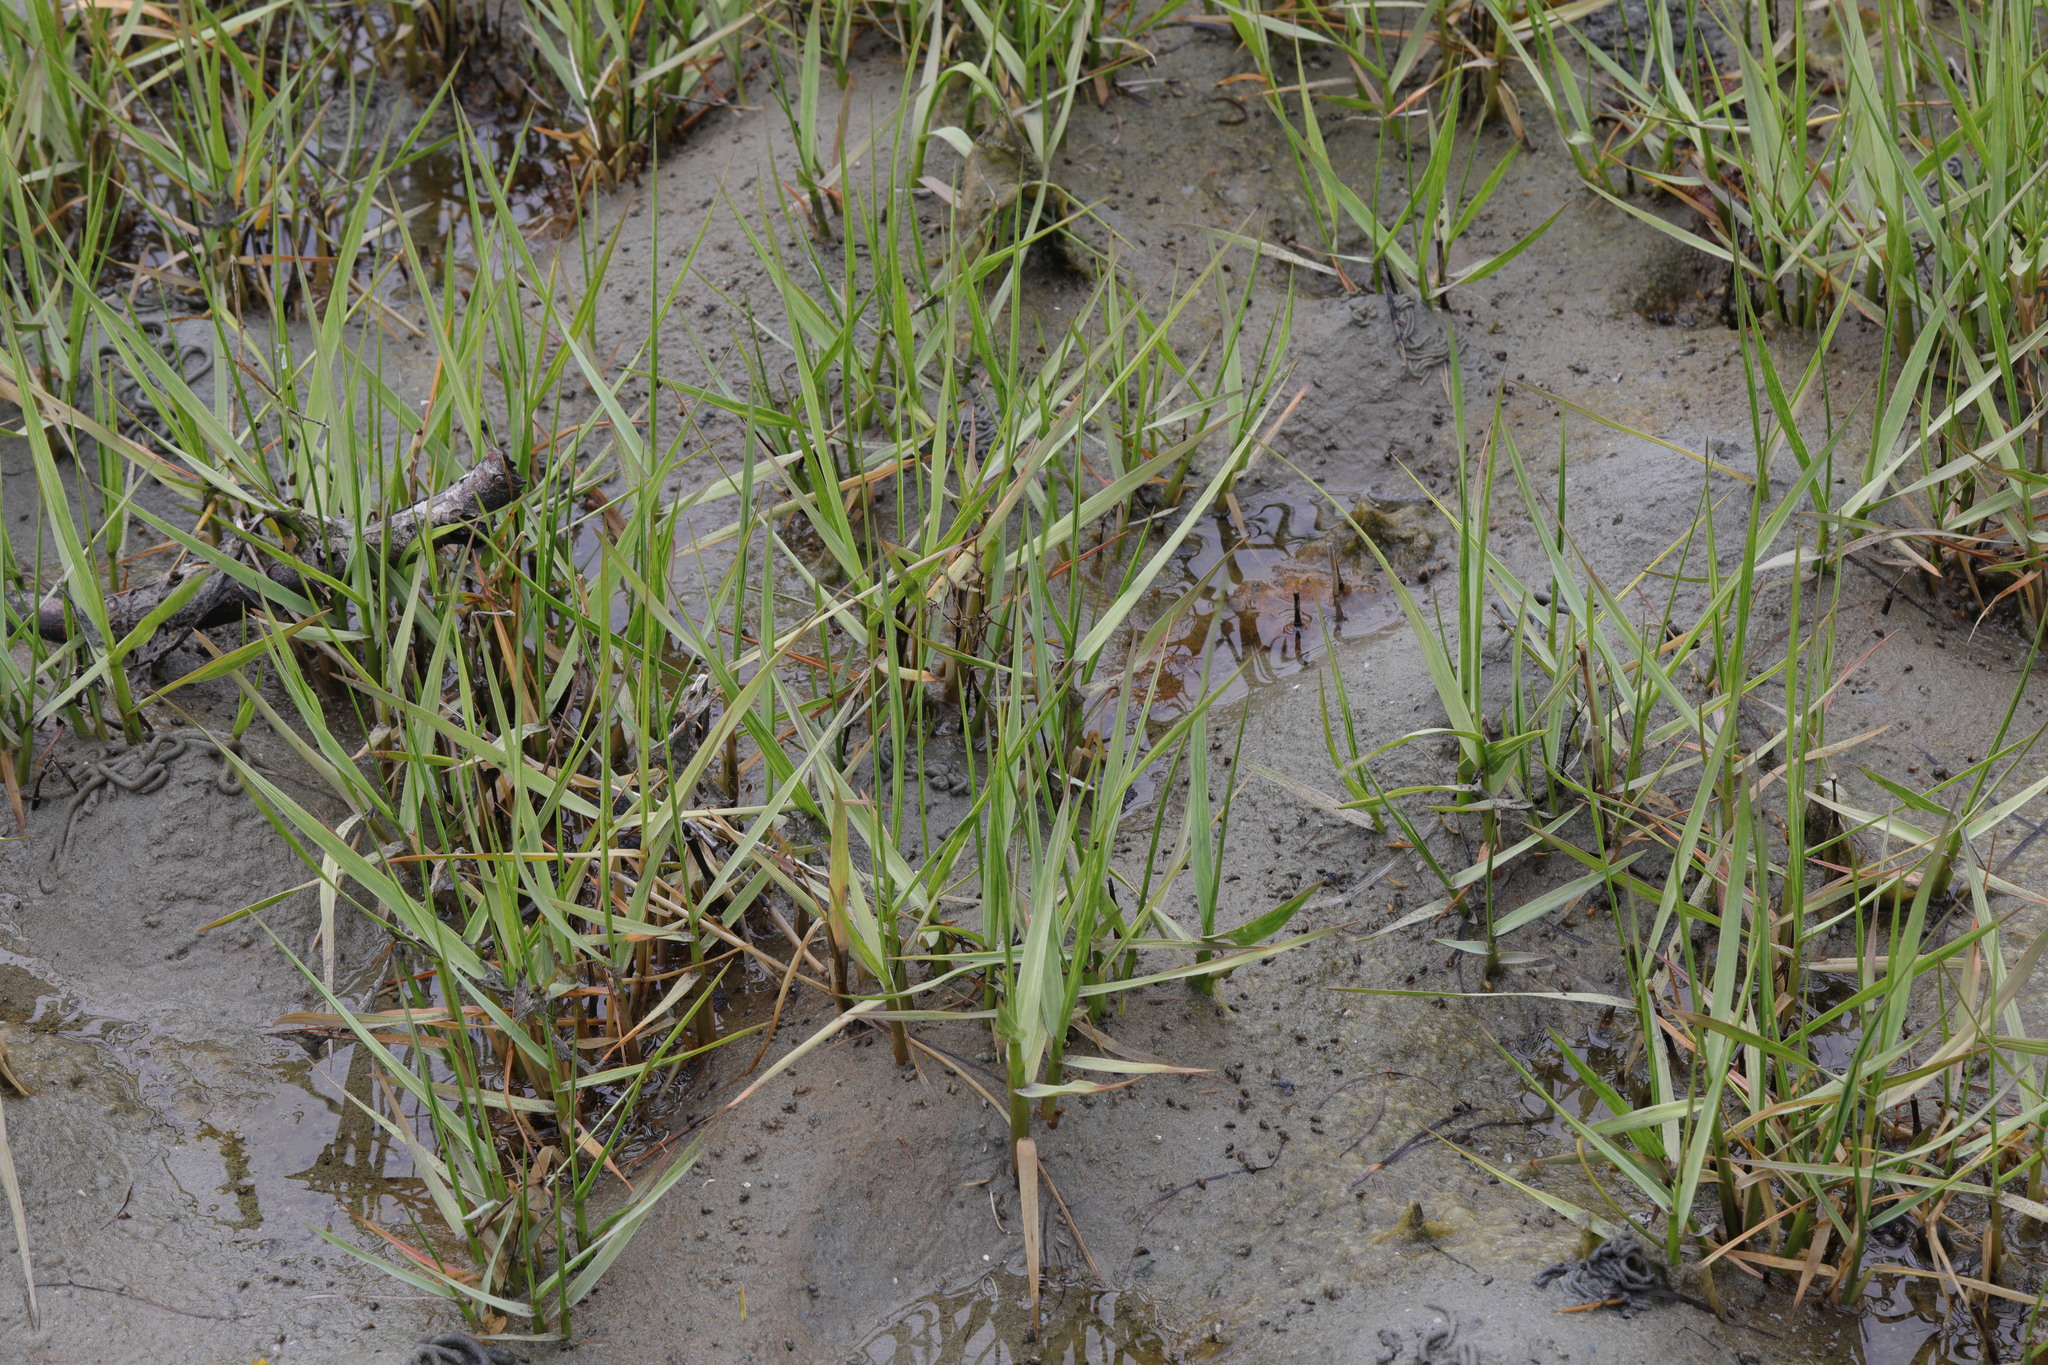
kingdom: Plantae
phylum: Tracheophyta
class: Liliopsida
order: Poales
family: Poaceae
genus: Sporobolus
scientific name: Sporobolus anglicus
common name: English cordgrass
